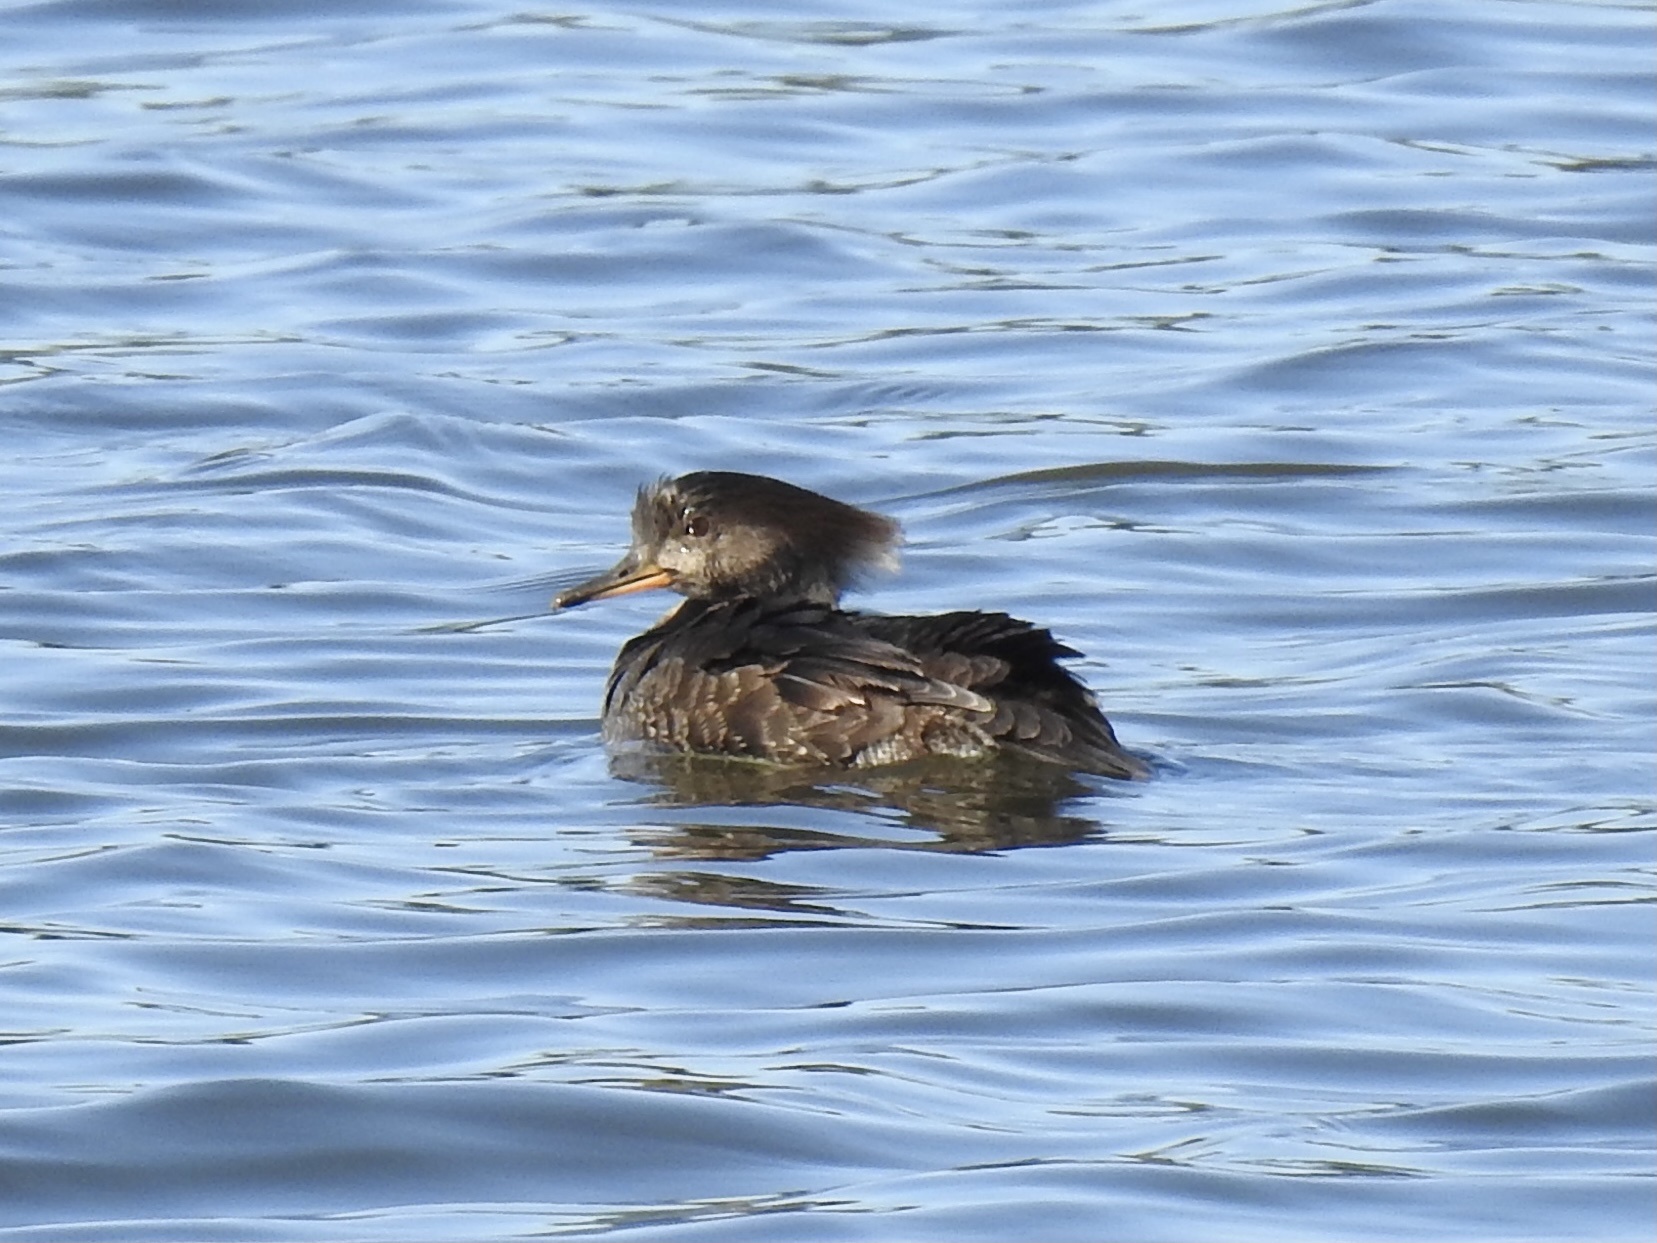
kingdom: Animalia
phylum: Chordata
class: Aves
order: Anseriformes
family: Anatidae
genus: Lophodytes
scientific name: Lophodytes cucullatus
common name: Hooded merganser
